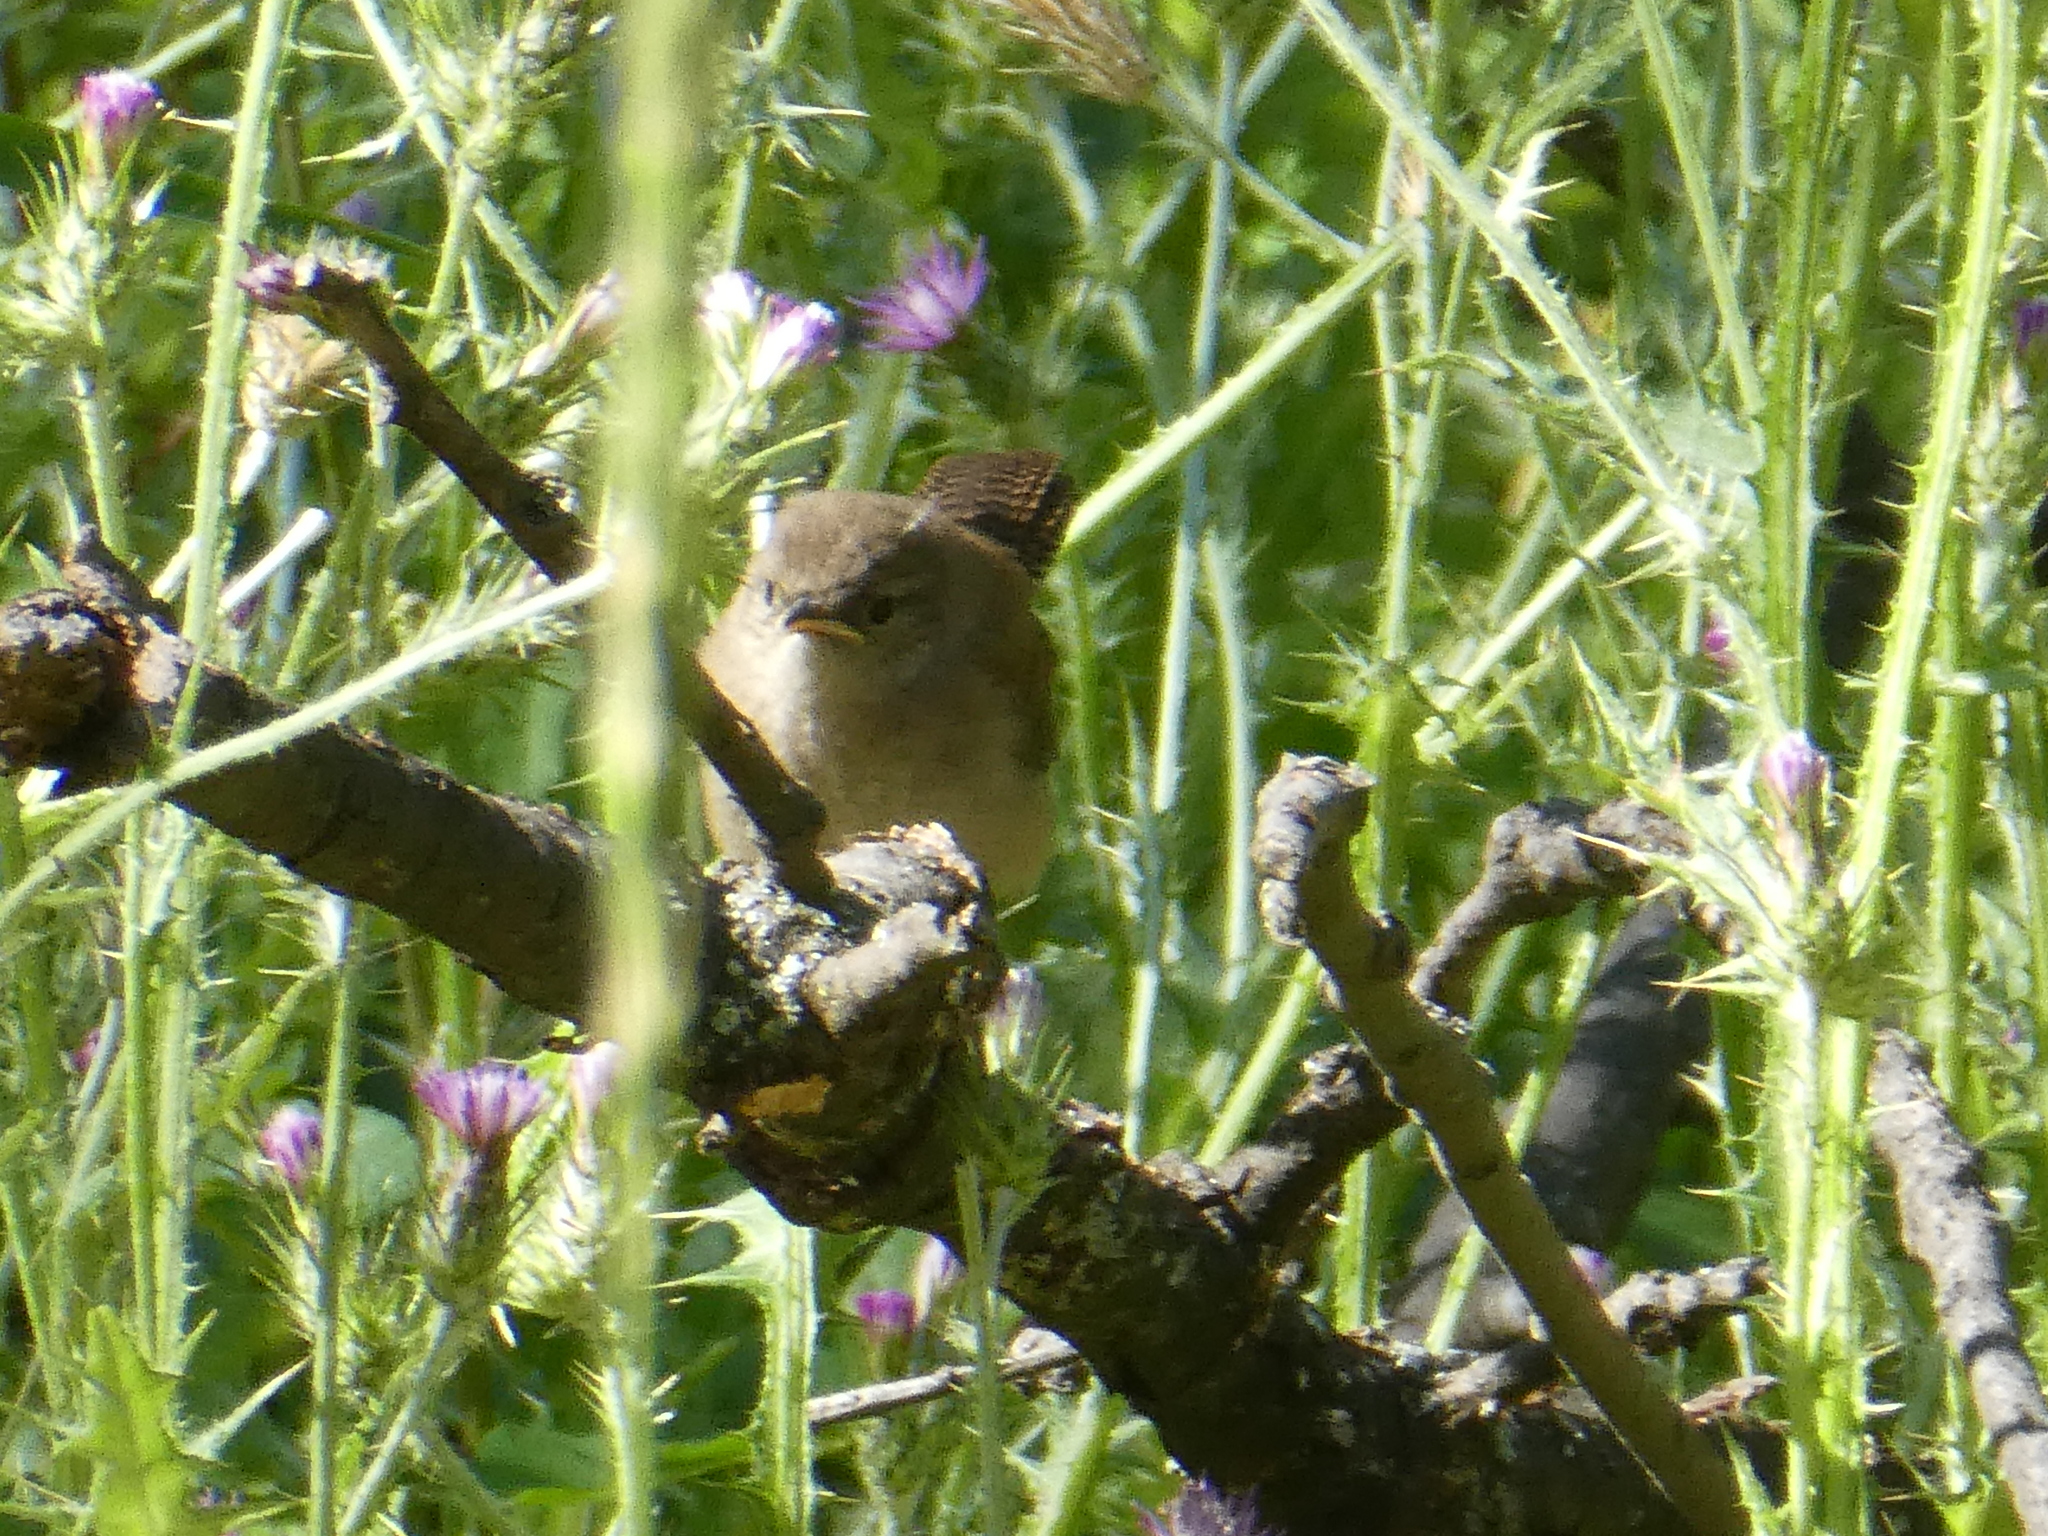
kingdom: Animalia
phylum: Chordata
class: Aves
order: Passeriformes
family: Troglodytidae
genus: Troglodytes
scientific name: Troglodytes aedon
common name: House wren
